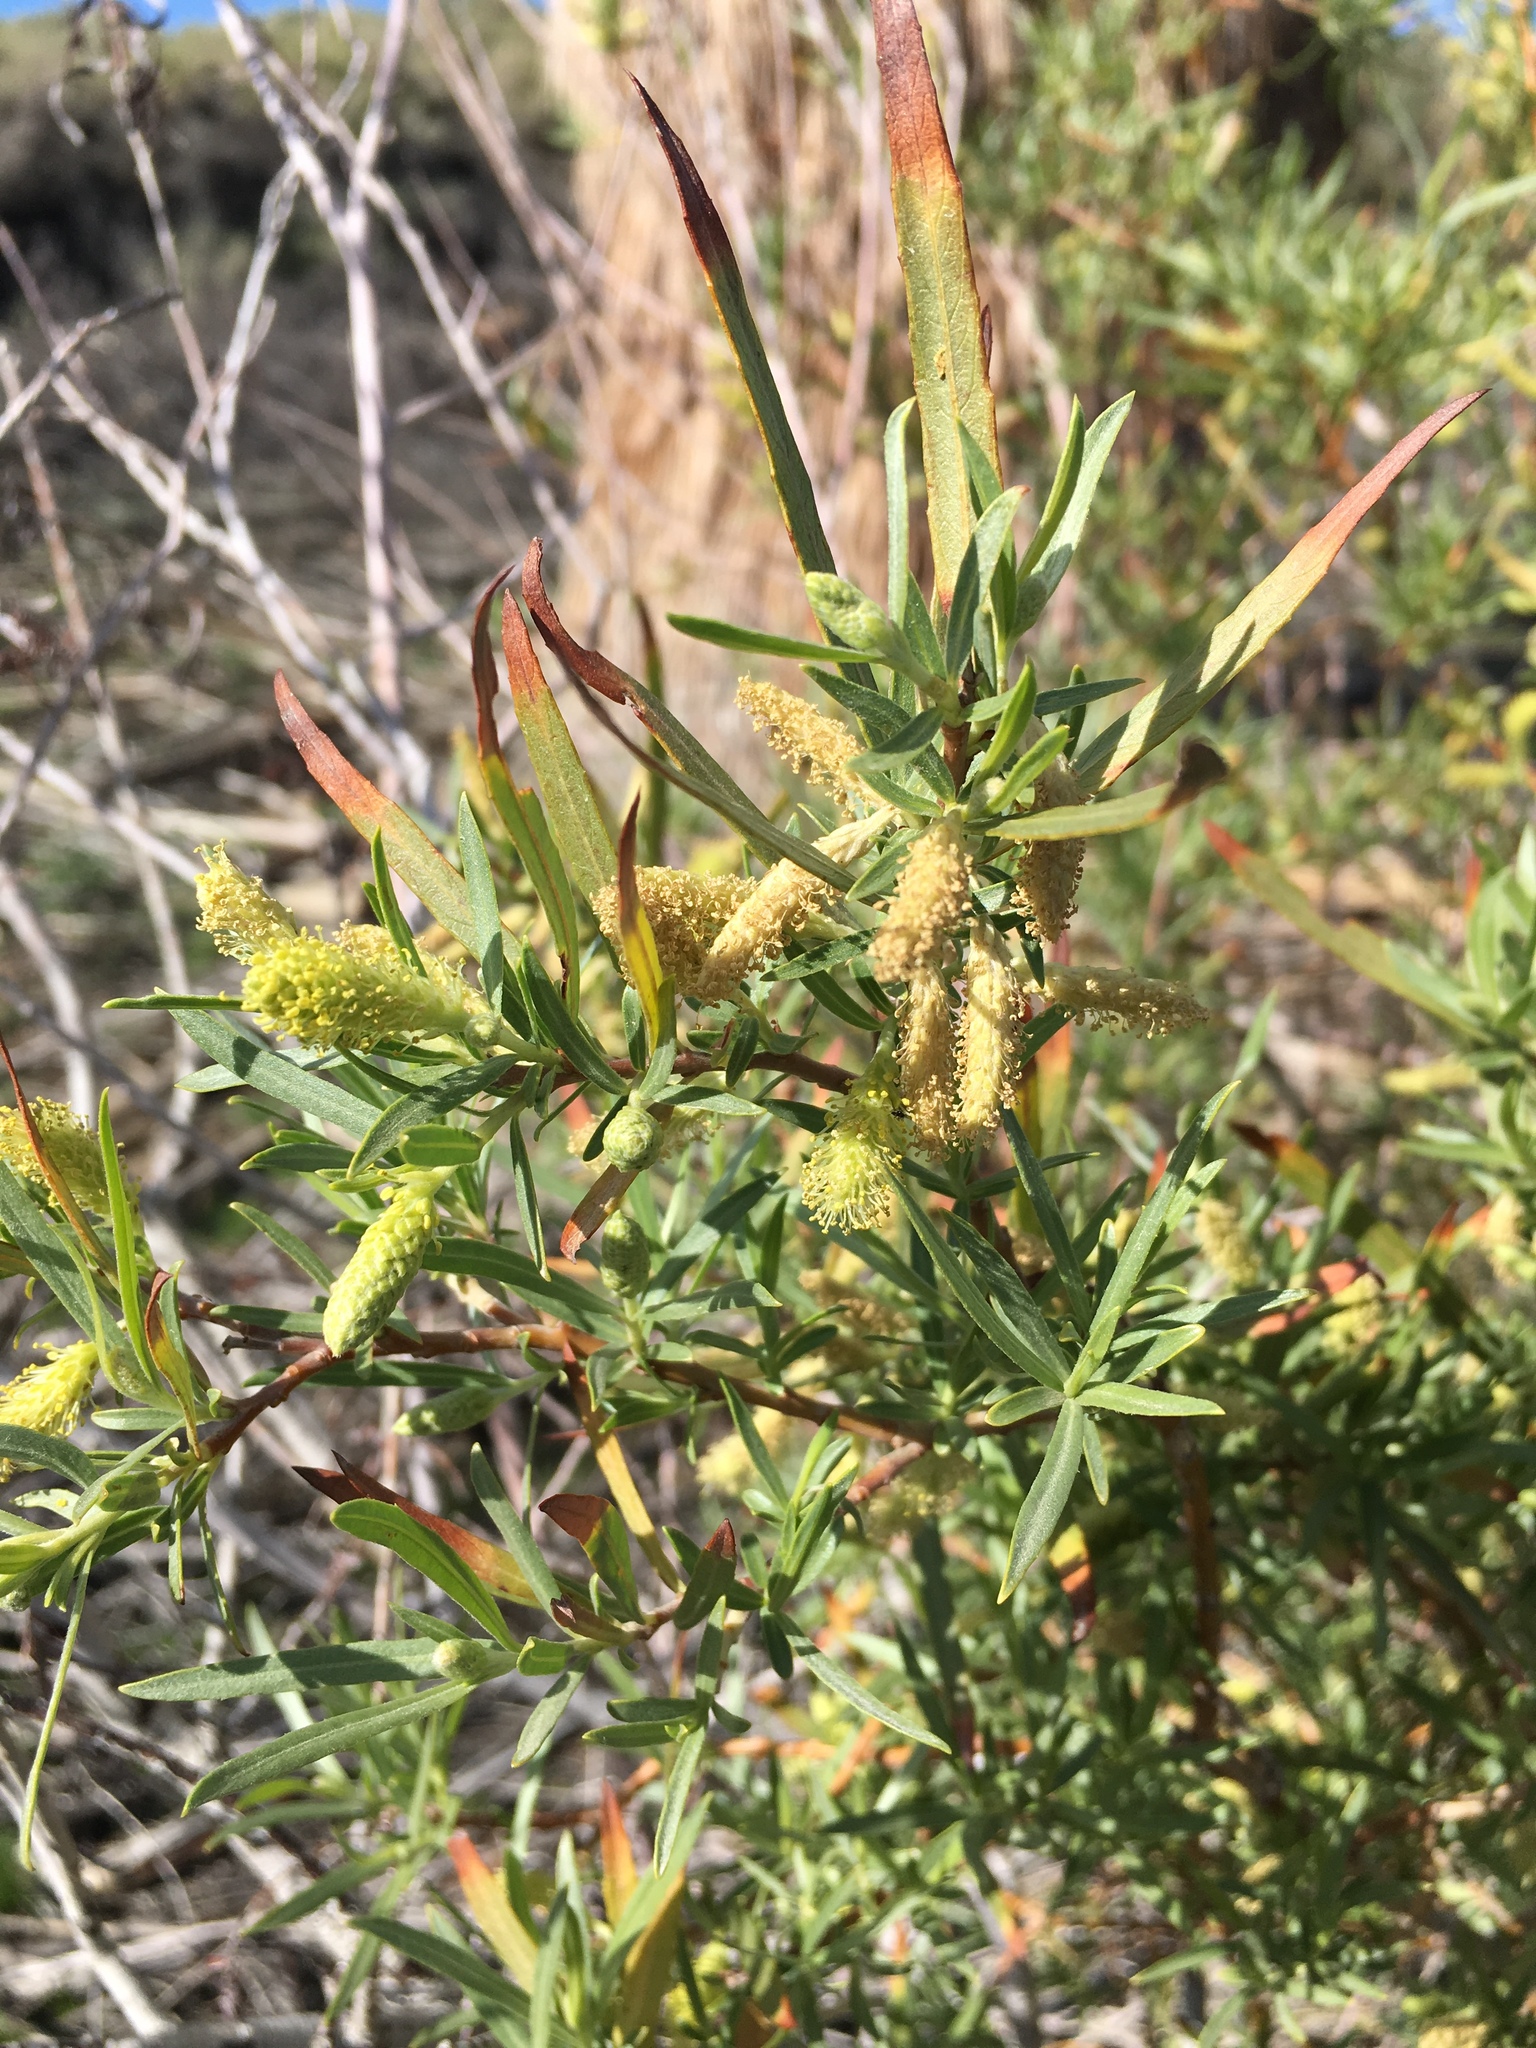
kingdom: Plantae
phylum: Tracheophyta
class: Magnoliopsida
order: Malpighiales
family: Salicaceae
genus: Salix
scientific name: Salix exigua
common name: Coyote willow
